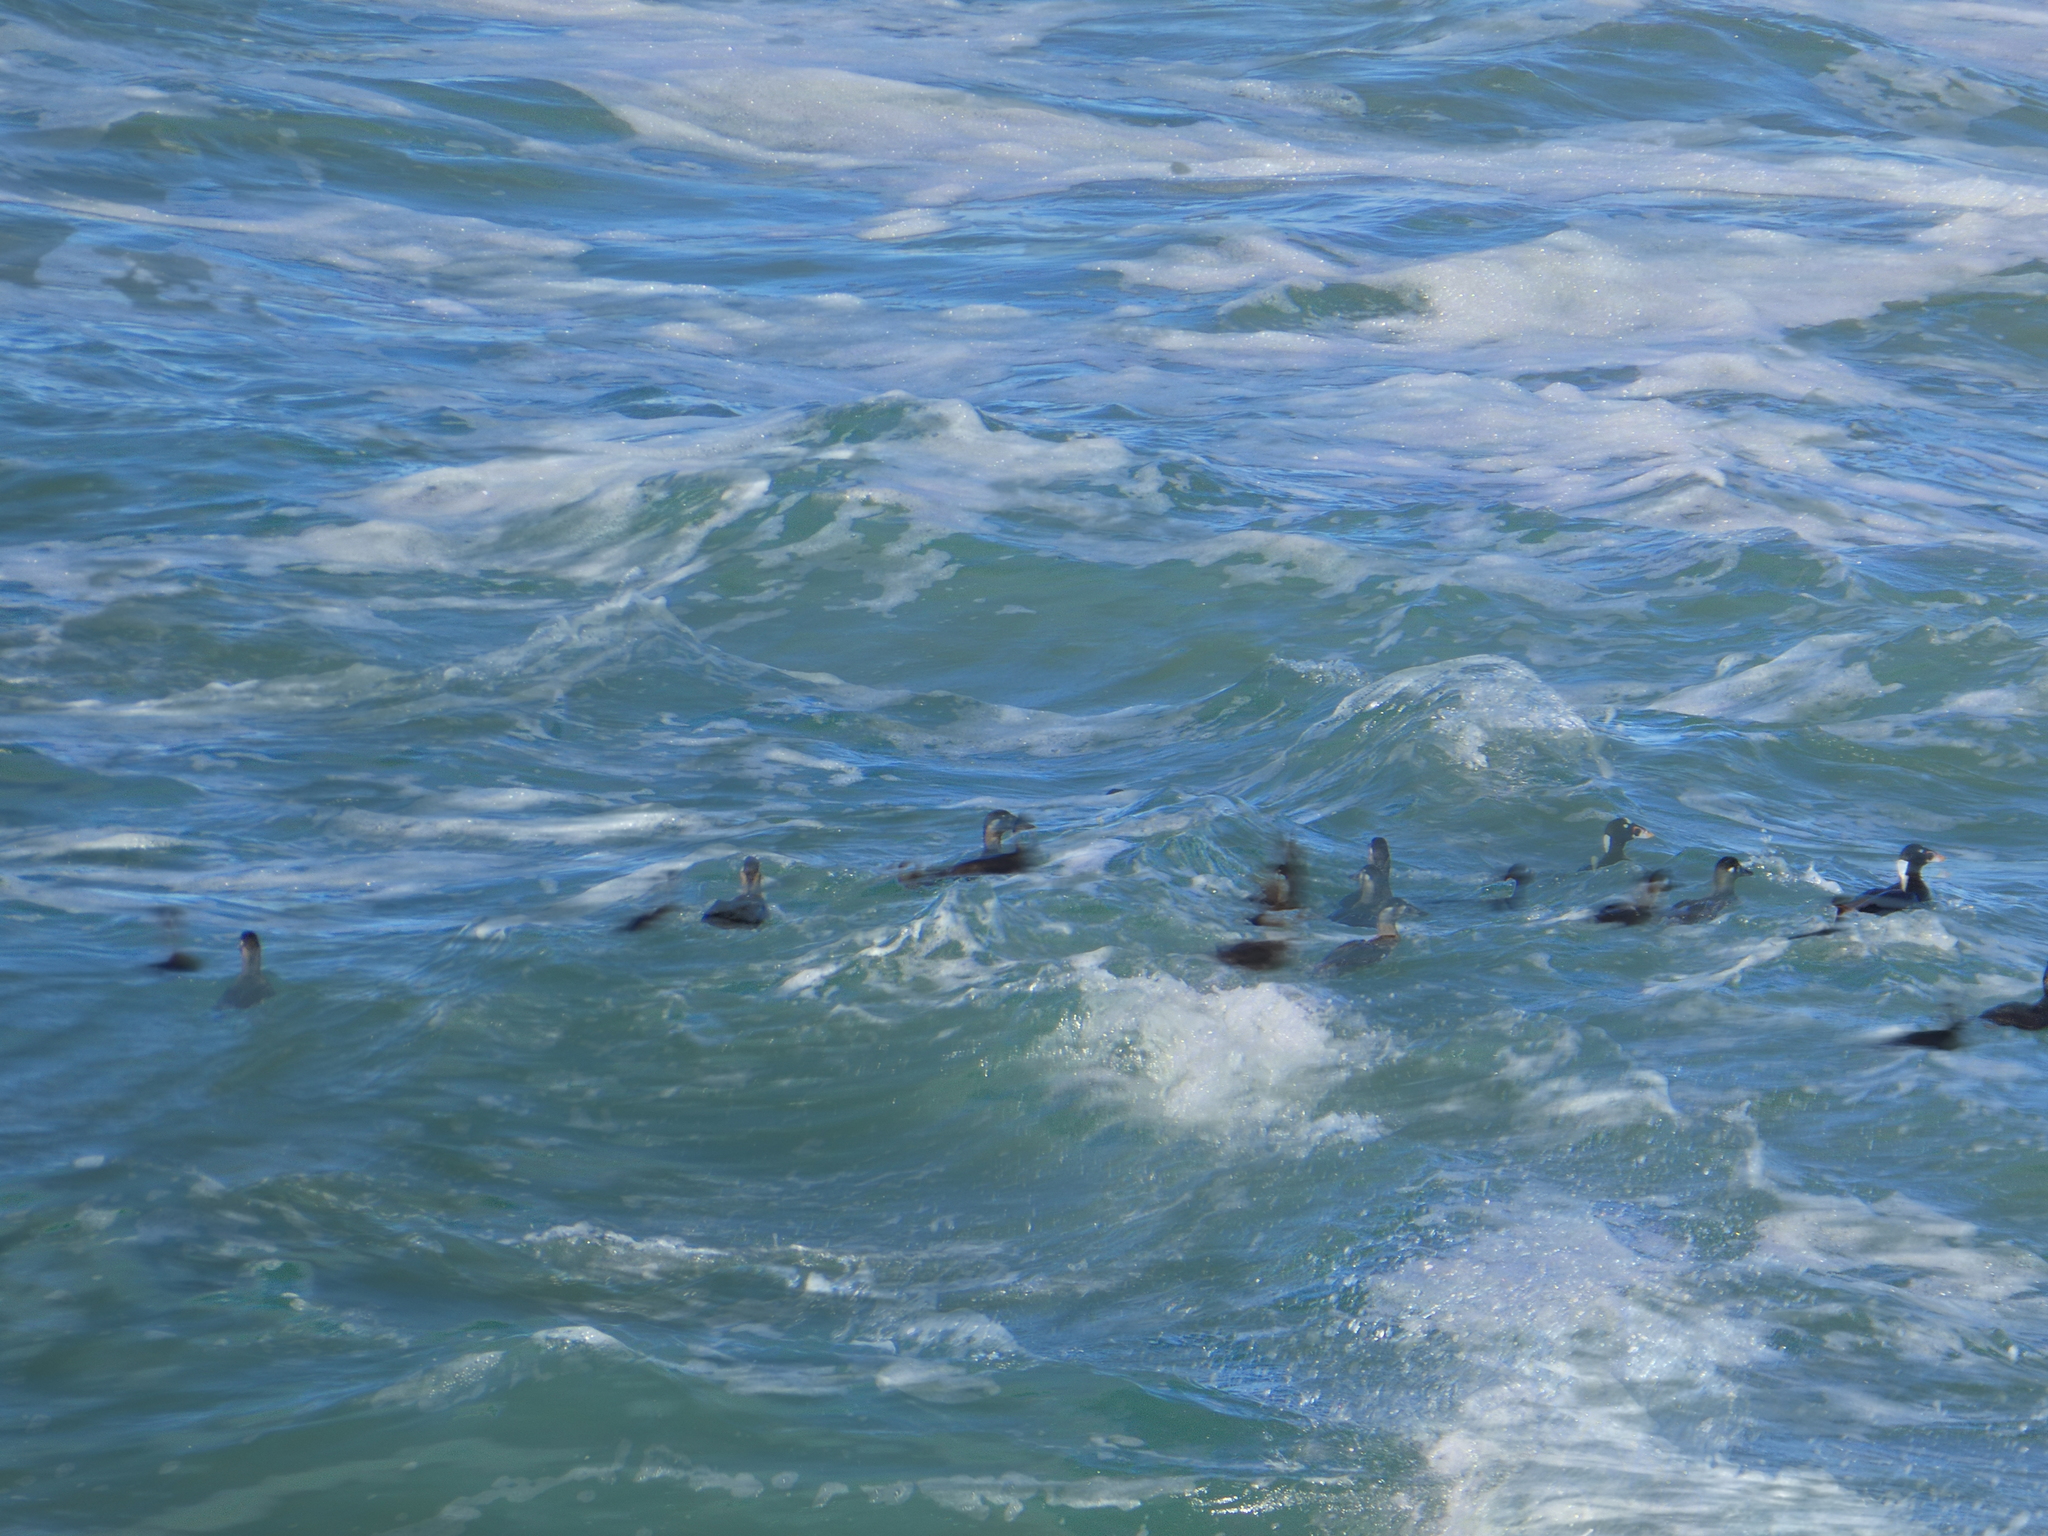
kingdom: Animalia
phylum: Chordata
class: Aves
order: Anseriformes
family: Anatidae
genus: Melanitta
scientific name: Melanitta perspicillata
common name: Surf scoter
